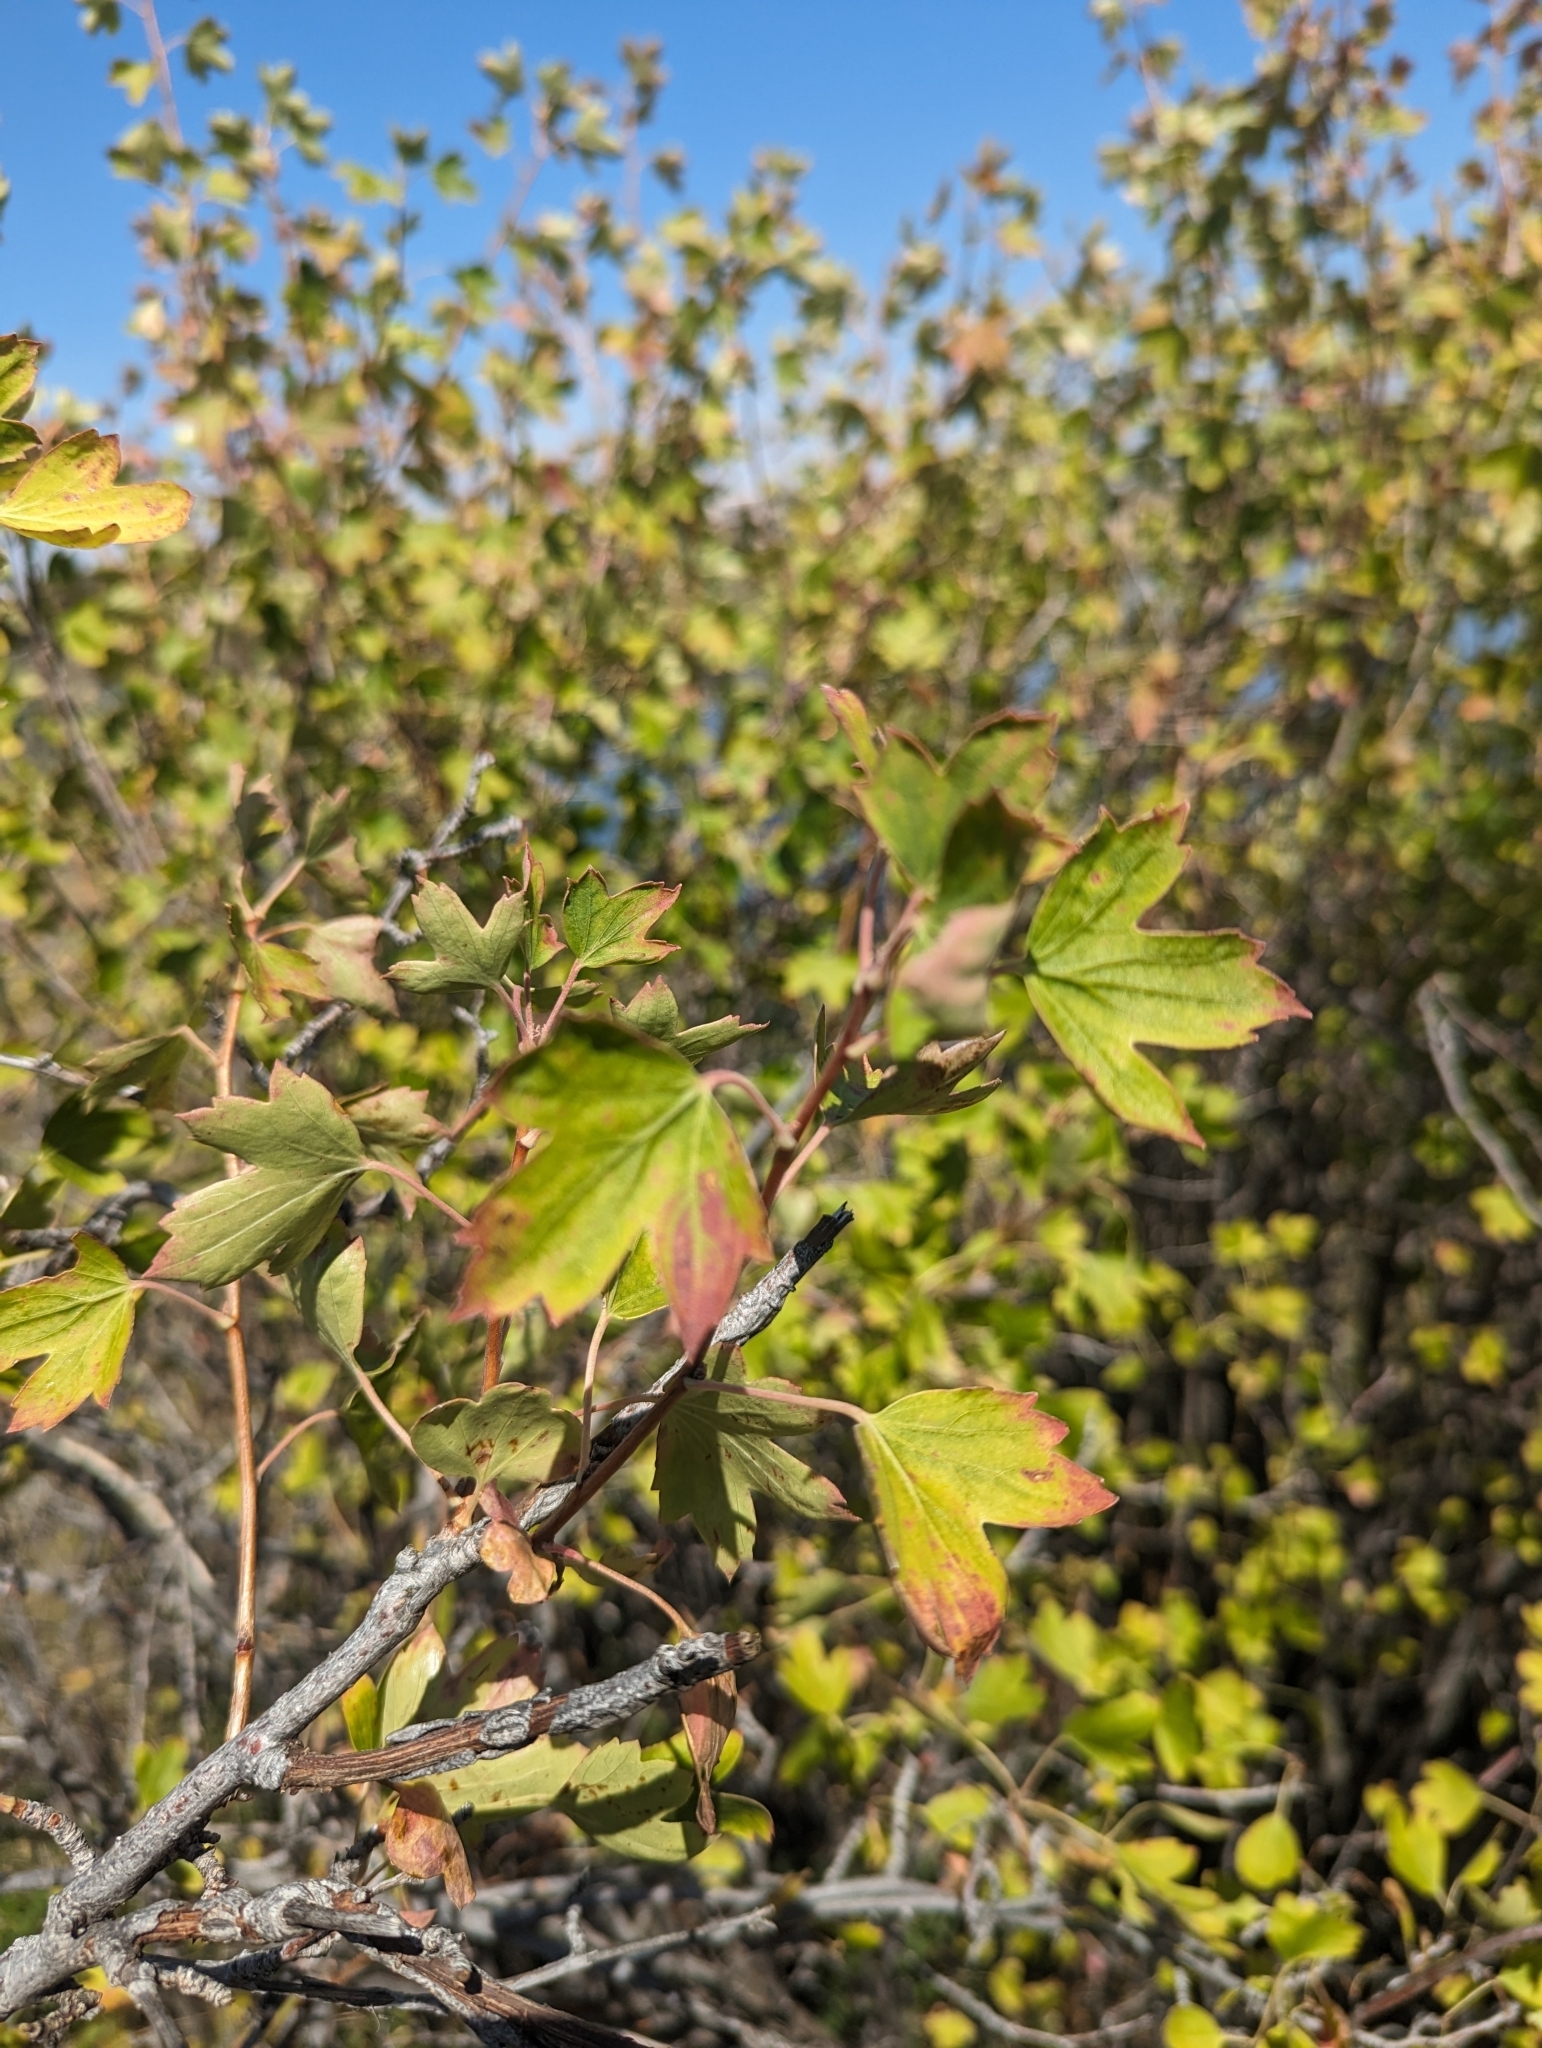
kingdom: Plantae
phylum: Tracheophyta
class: Magnoliopsida
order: Saxifragales
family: Grossulariaceae
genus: Ribes
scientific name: Ribes aureum
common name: Golden currant
